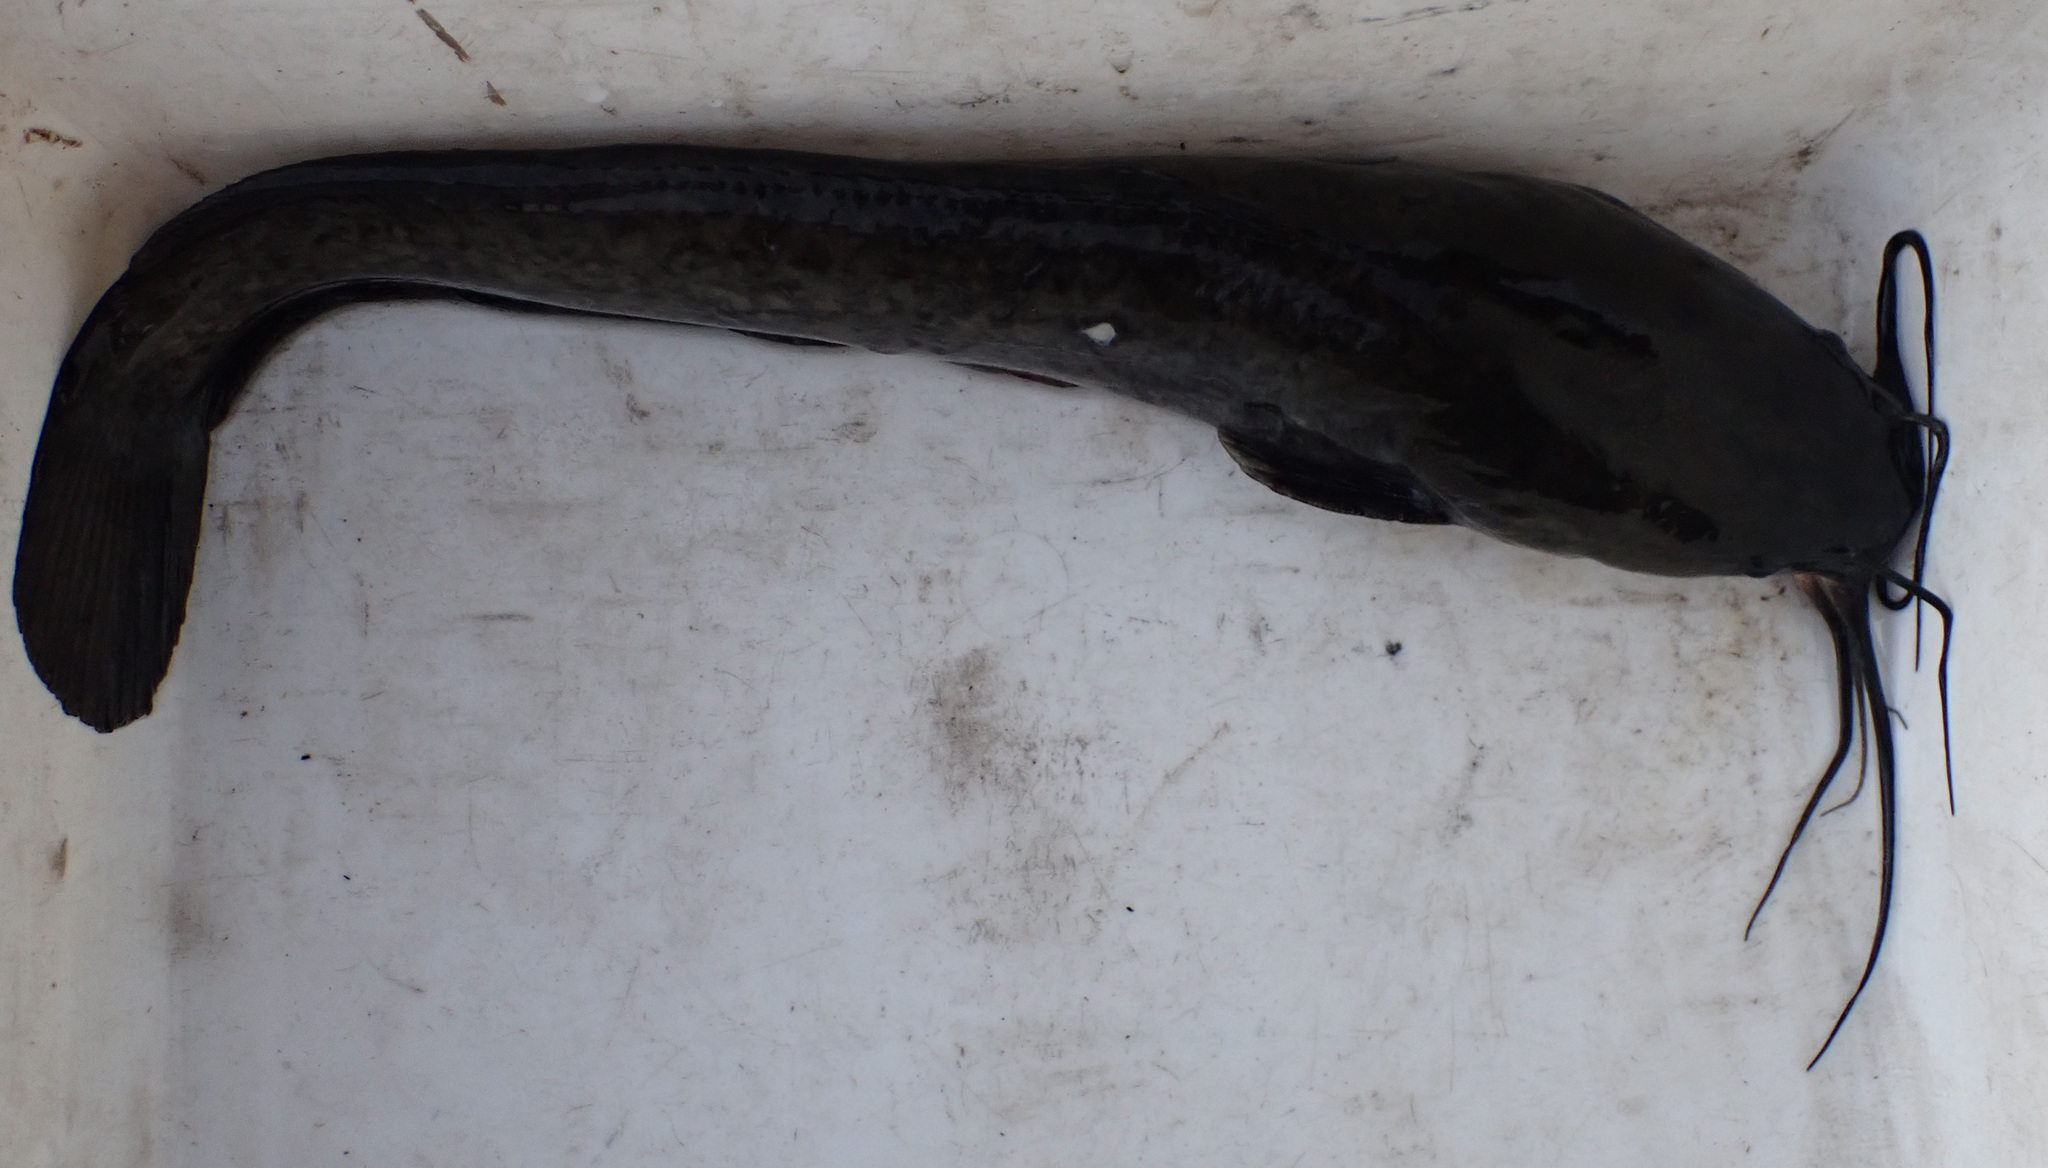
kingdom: Animalia
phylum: Chordata
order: Siluriformes
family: Clariidae
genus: Clarias
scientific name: Clarias ngamensis
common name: Blunt-toothed african catfish
